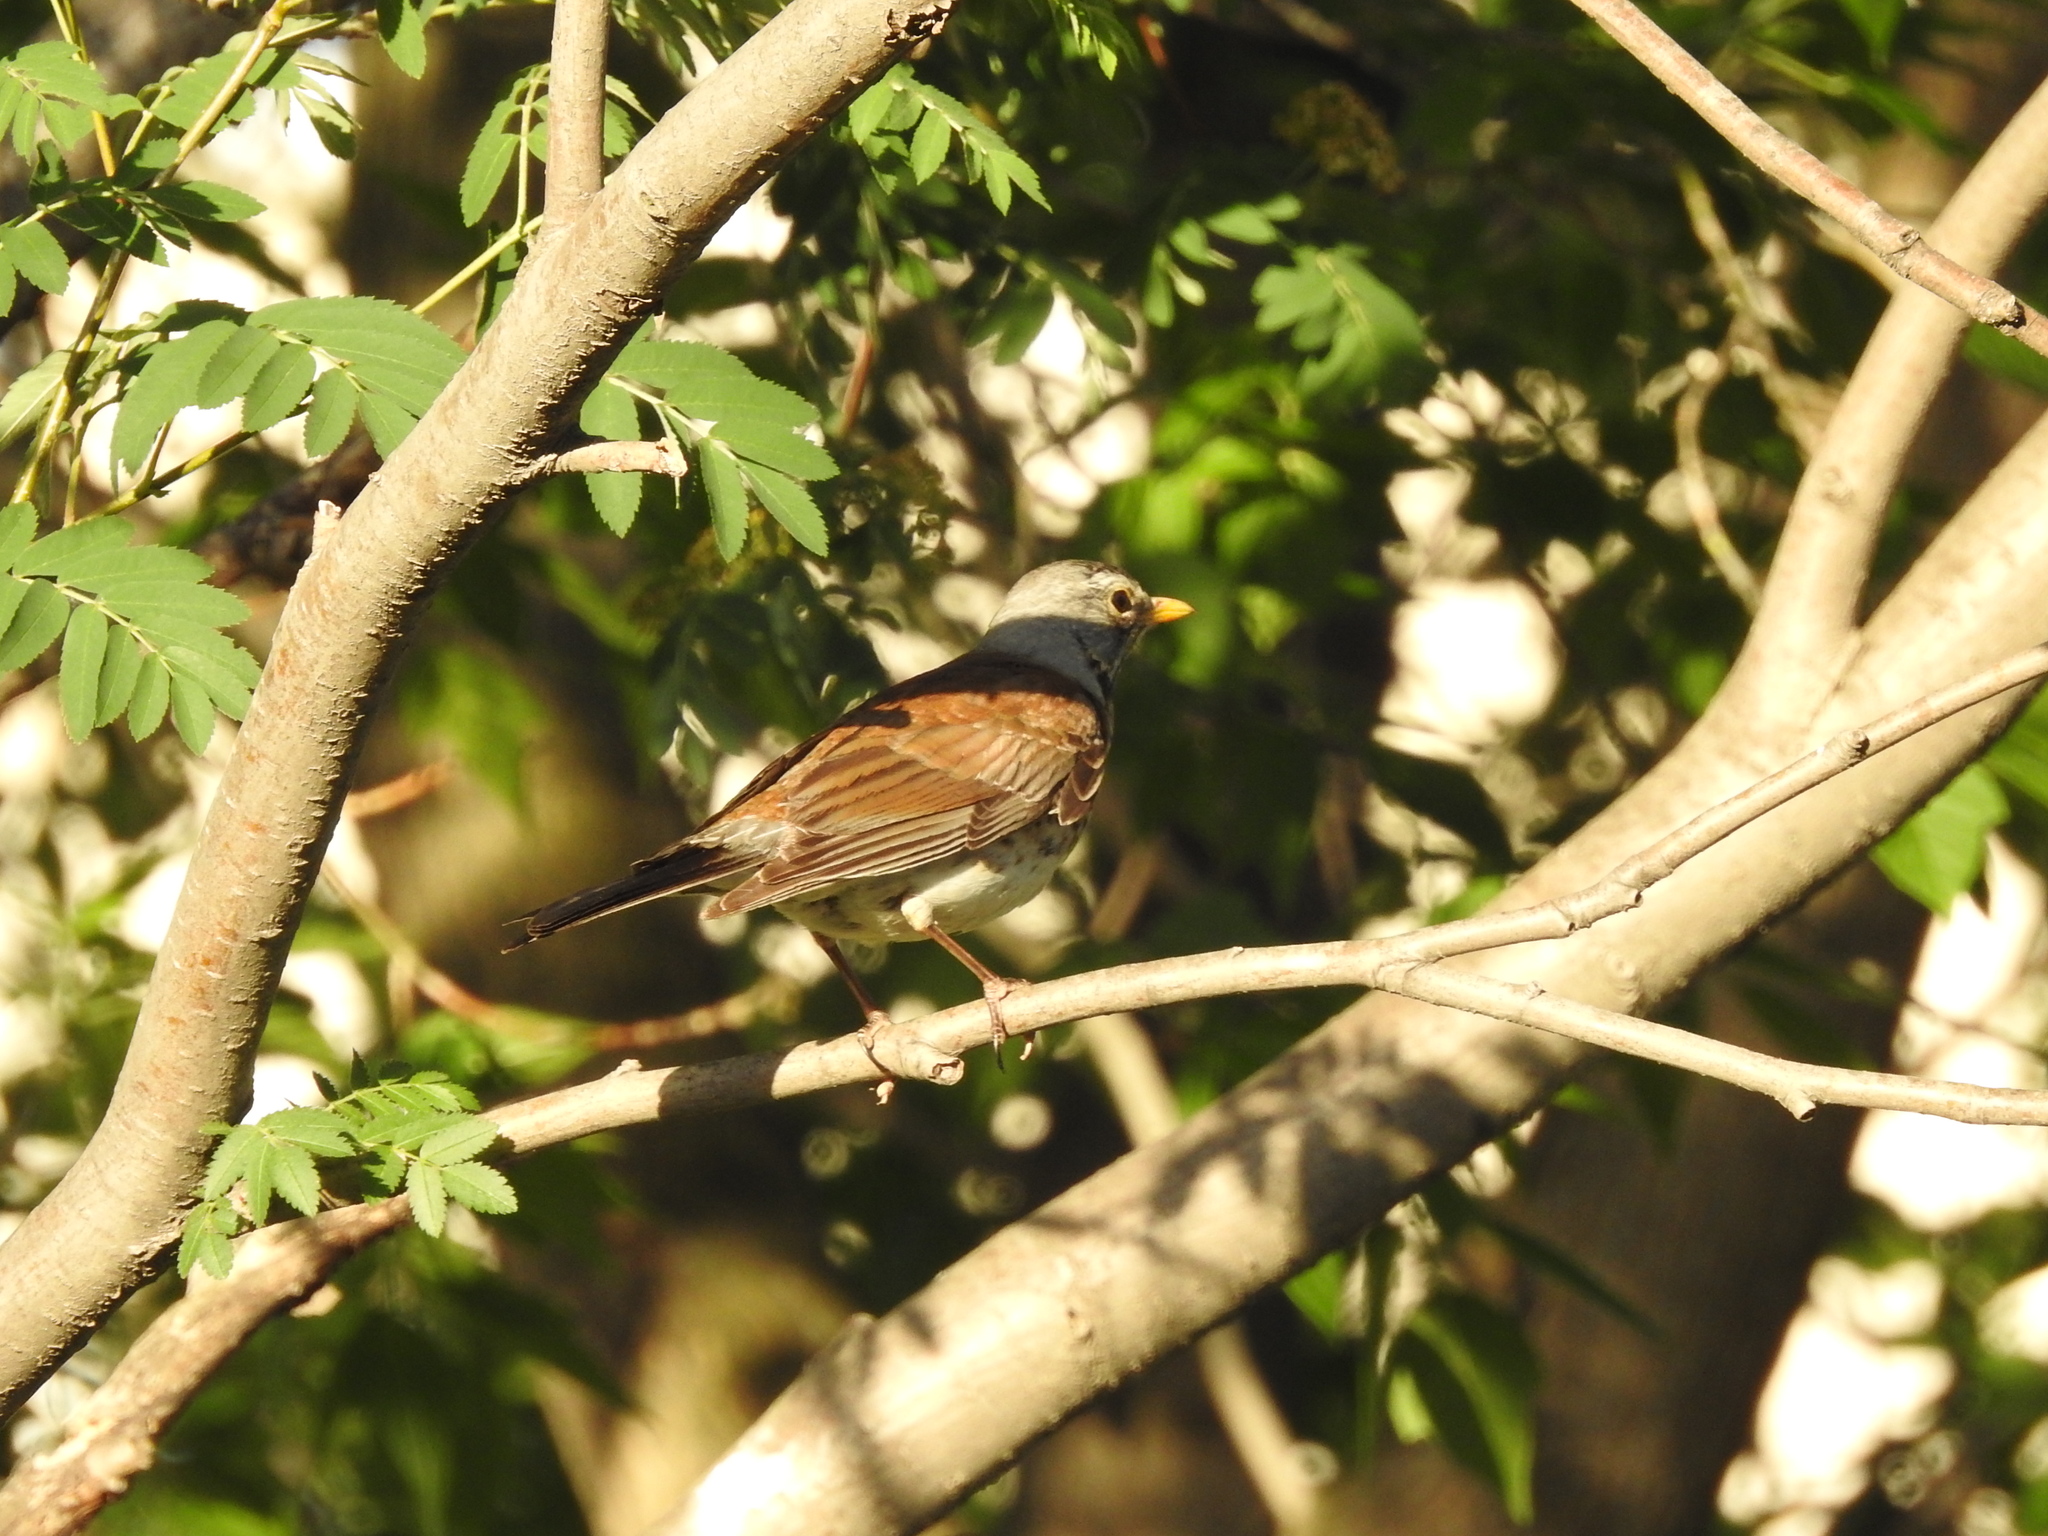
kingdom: Animalia
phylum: Chordata
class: Aves
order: Passeriformes
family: Turdidae
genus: Turdus
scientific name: Turdus pilaris
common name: Fieldfare
